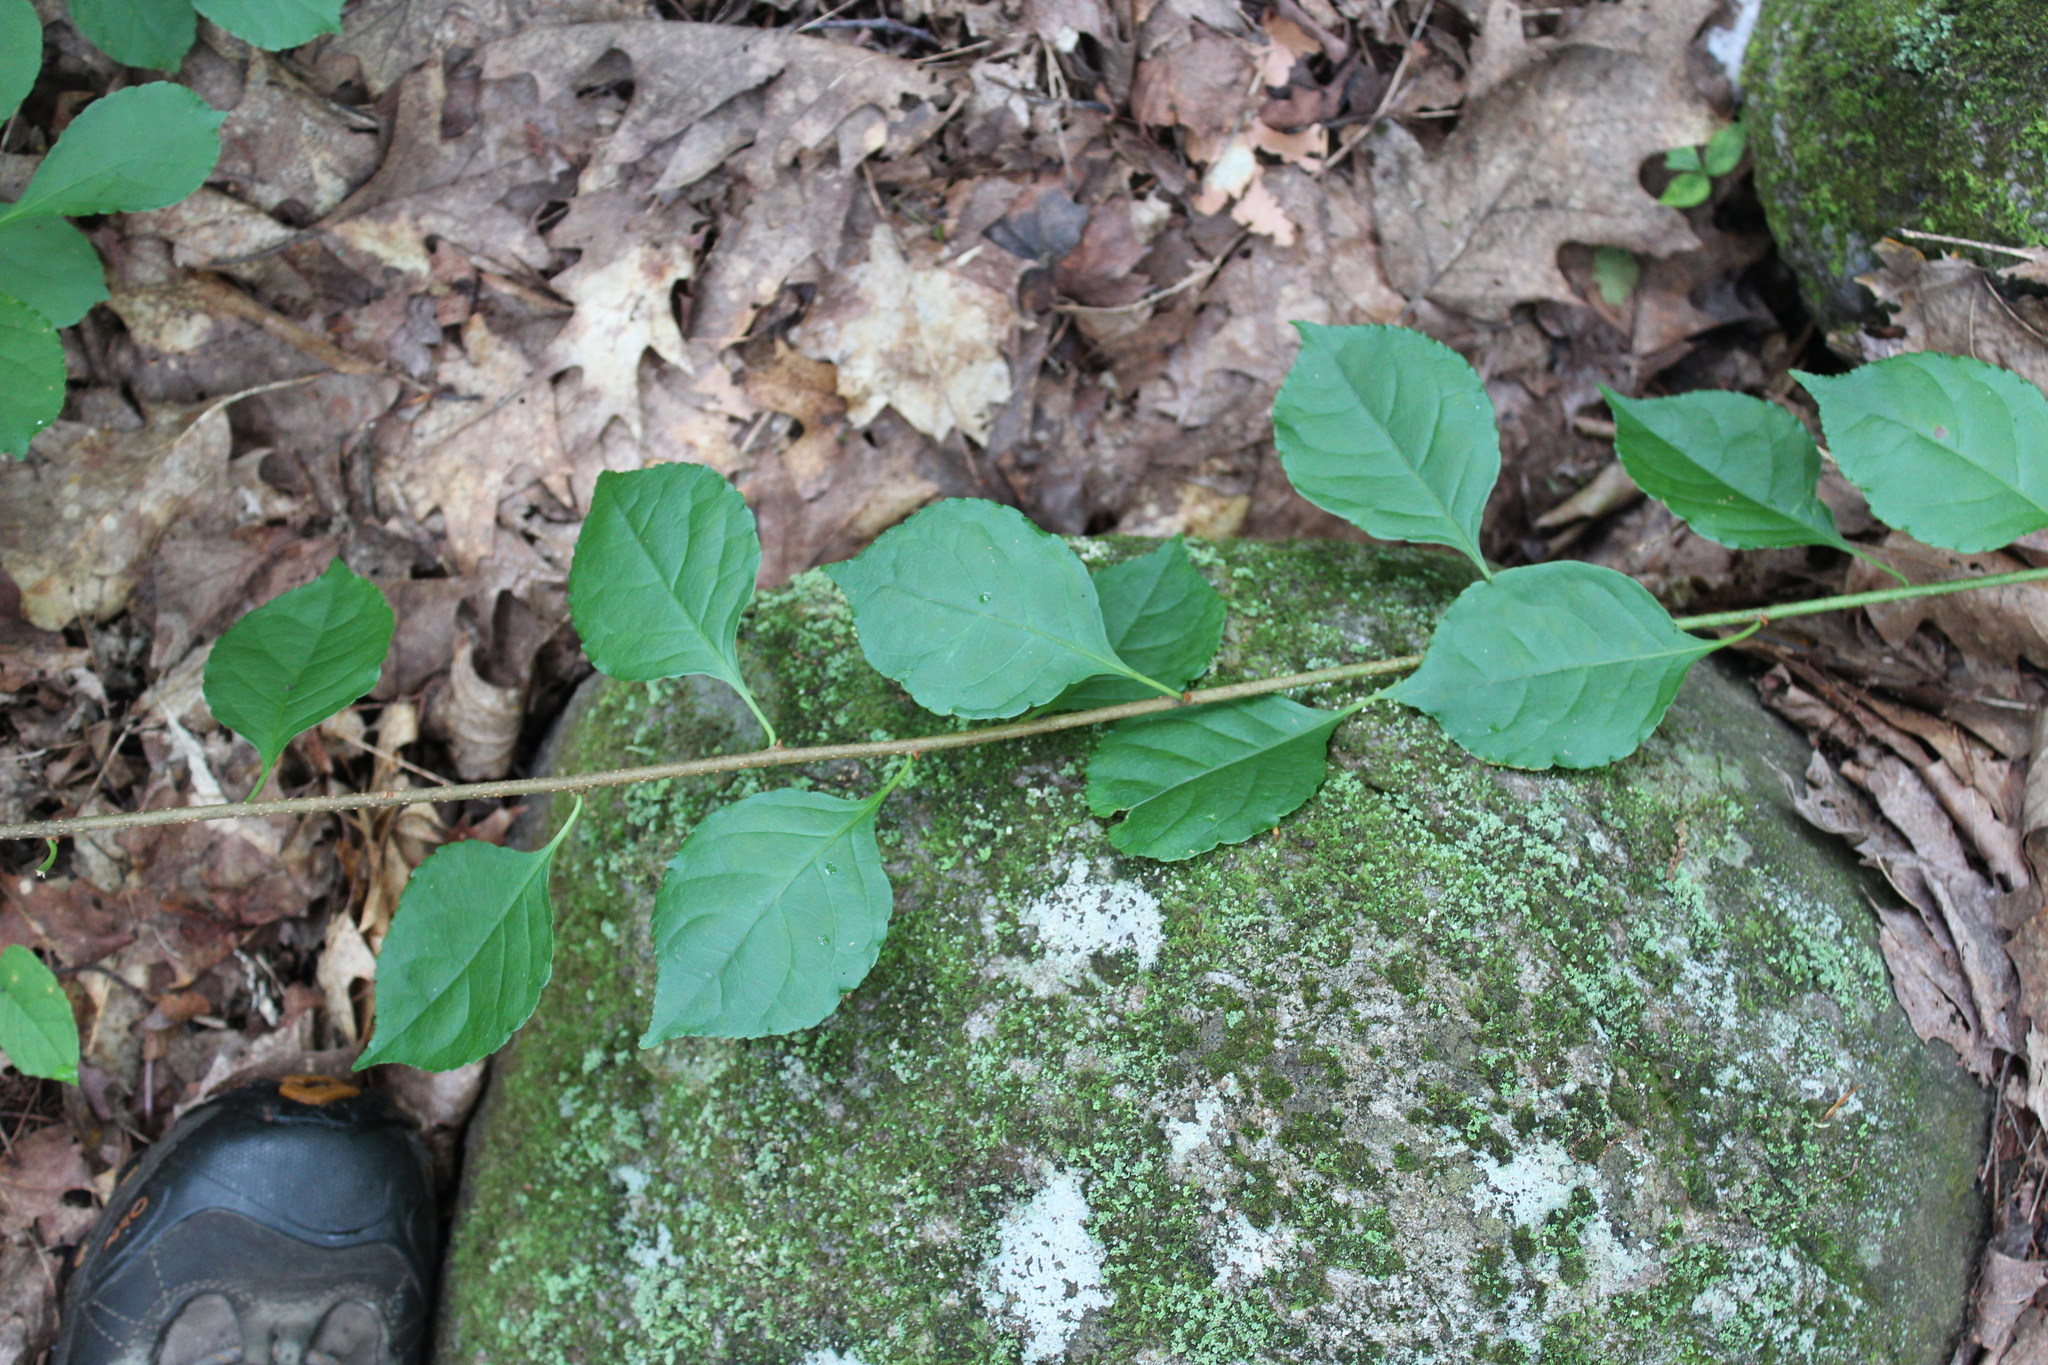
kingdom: Plantae
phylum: Tracheophyta
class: Magnoliopsida
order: Celastrales
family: Celastraceae
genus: Celastrus
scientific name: Celastrus orbiculatus
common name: Oriental bittersweet
